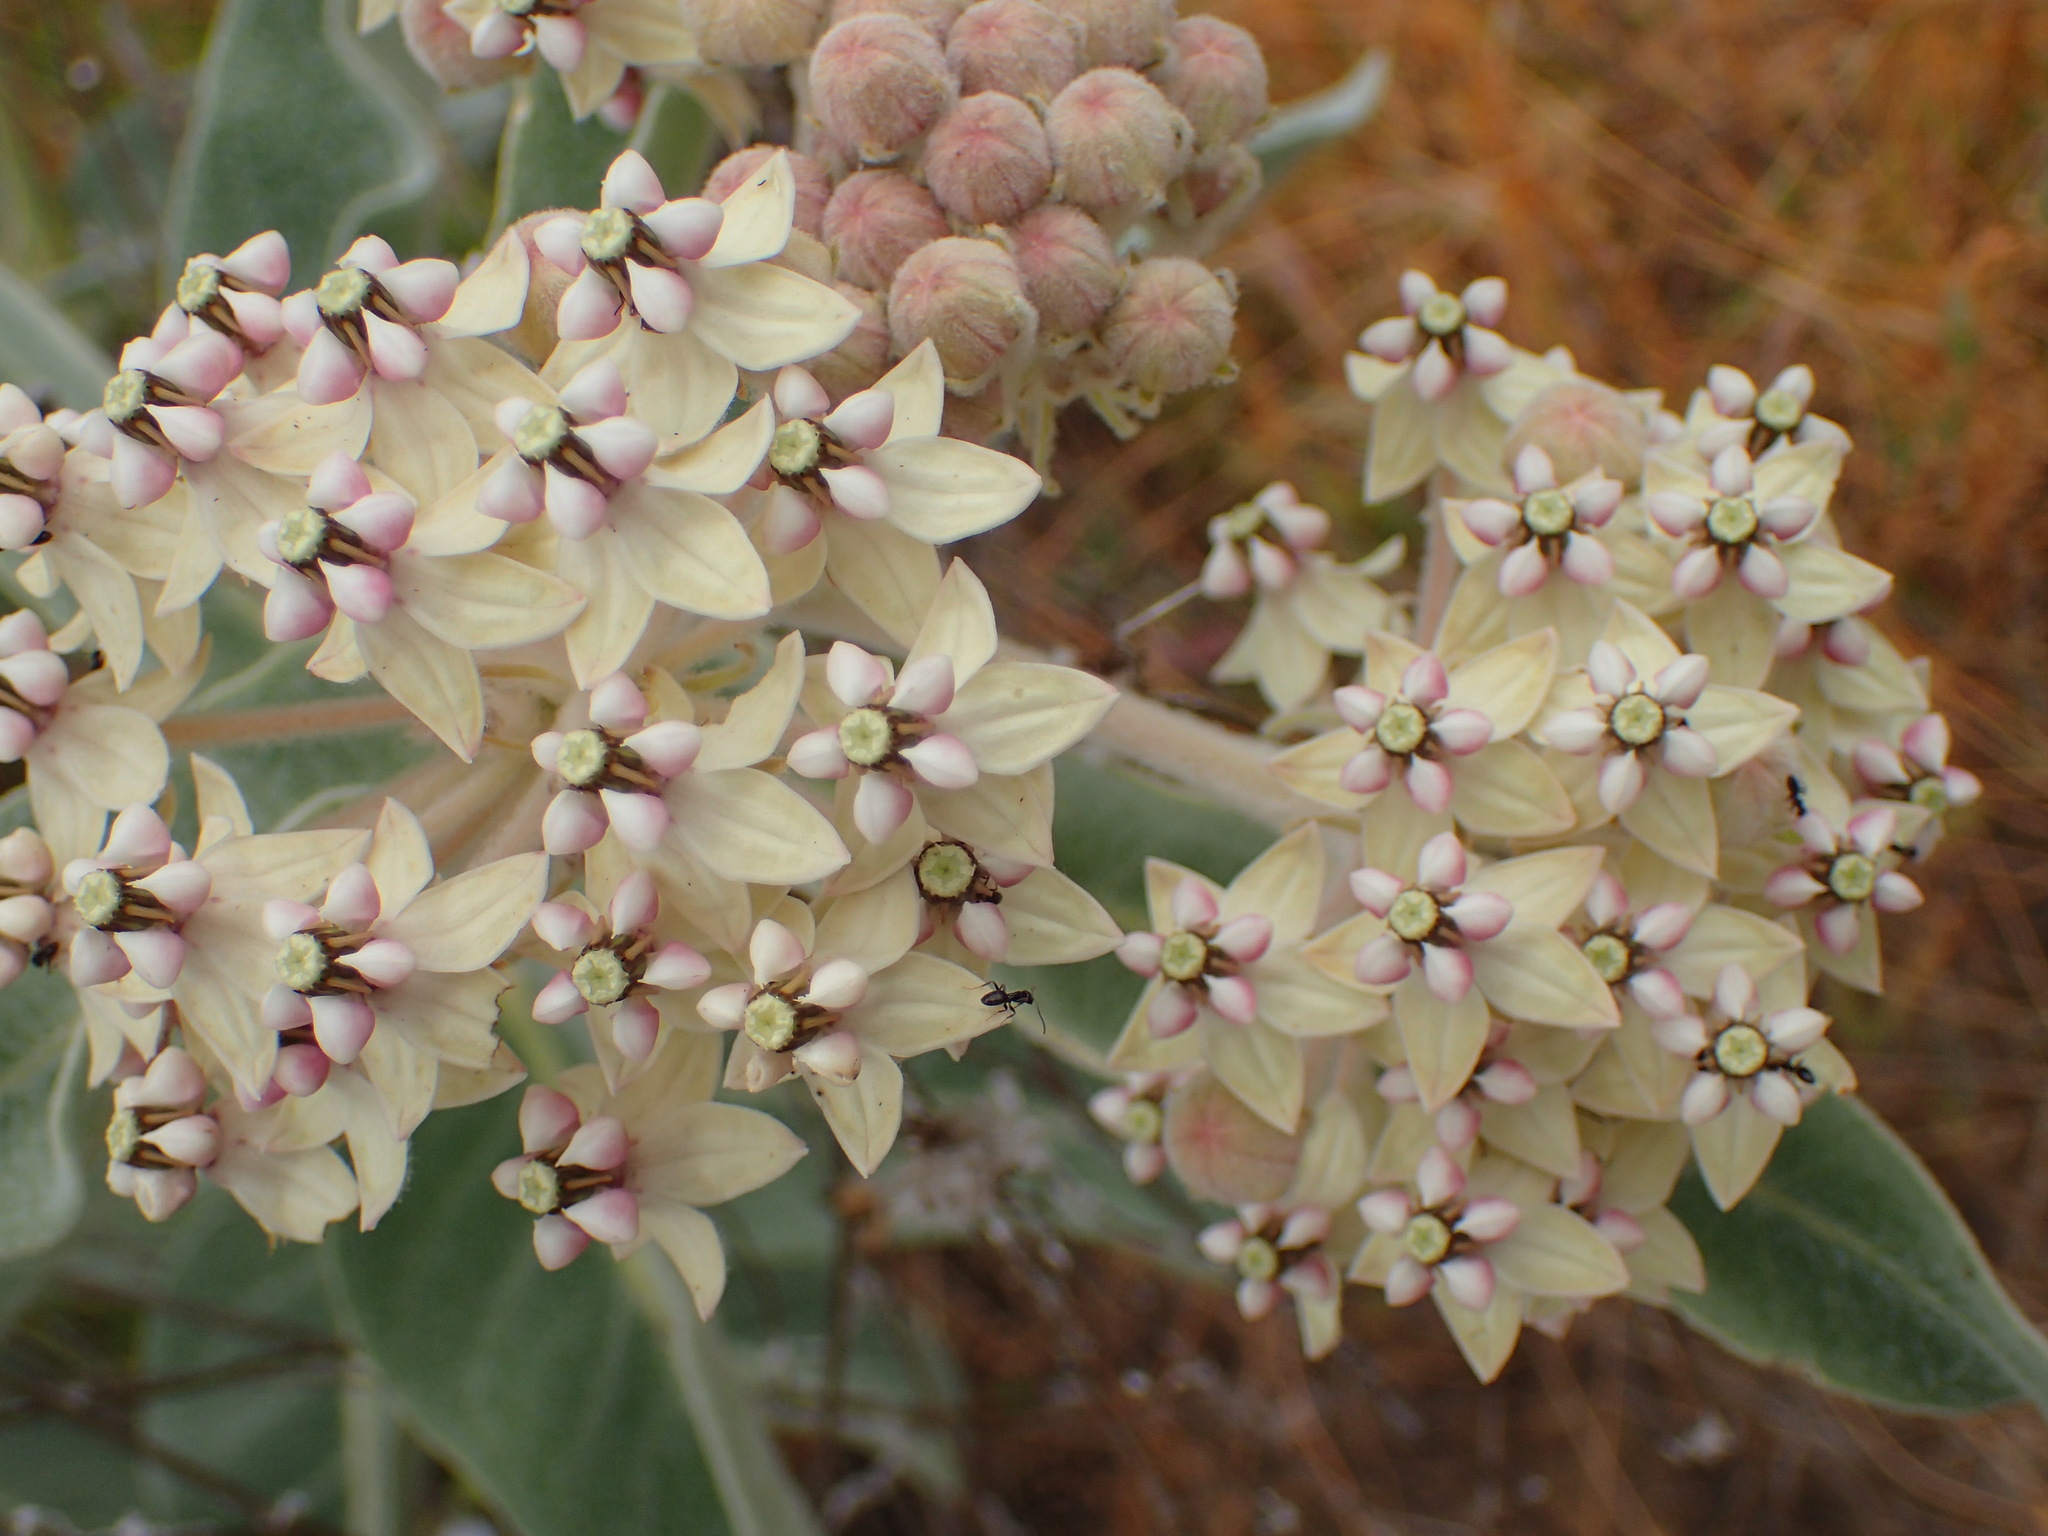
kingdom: Plantae
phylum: Tracheophyta
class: Magnoliopsida
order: Gentianales
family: Apocynaceae
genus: Asclepias
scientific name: Asclepias eriocarpa
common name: Indian milkweed
